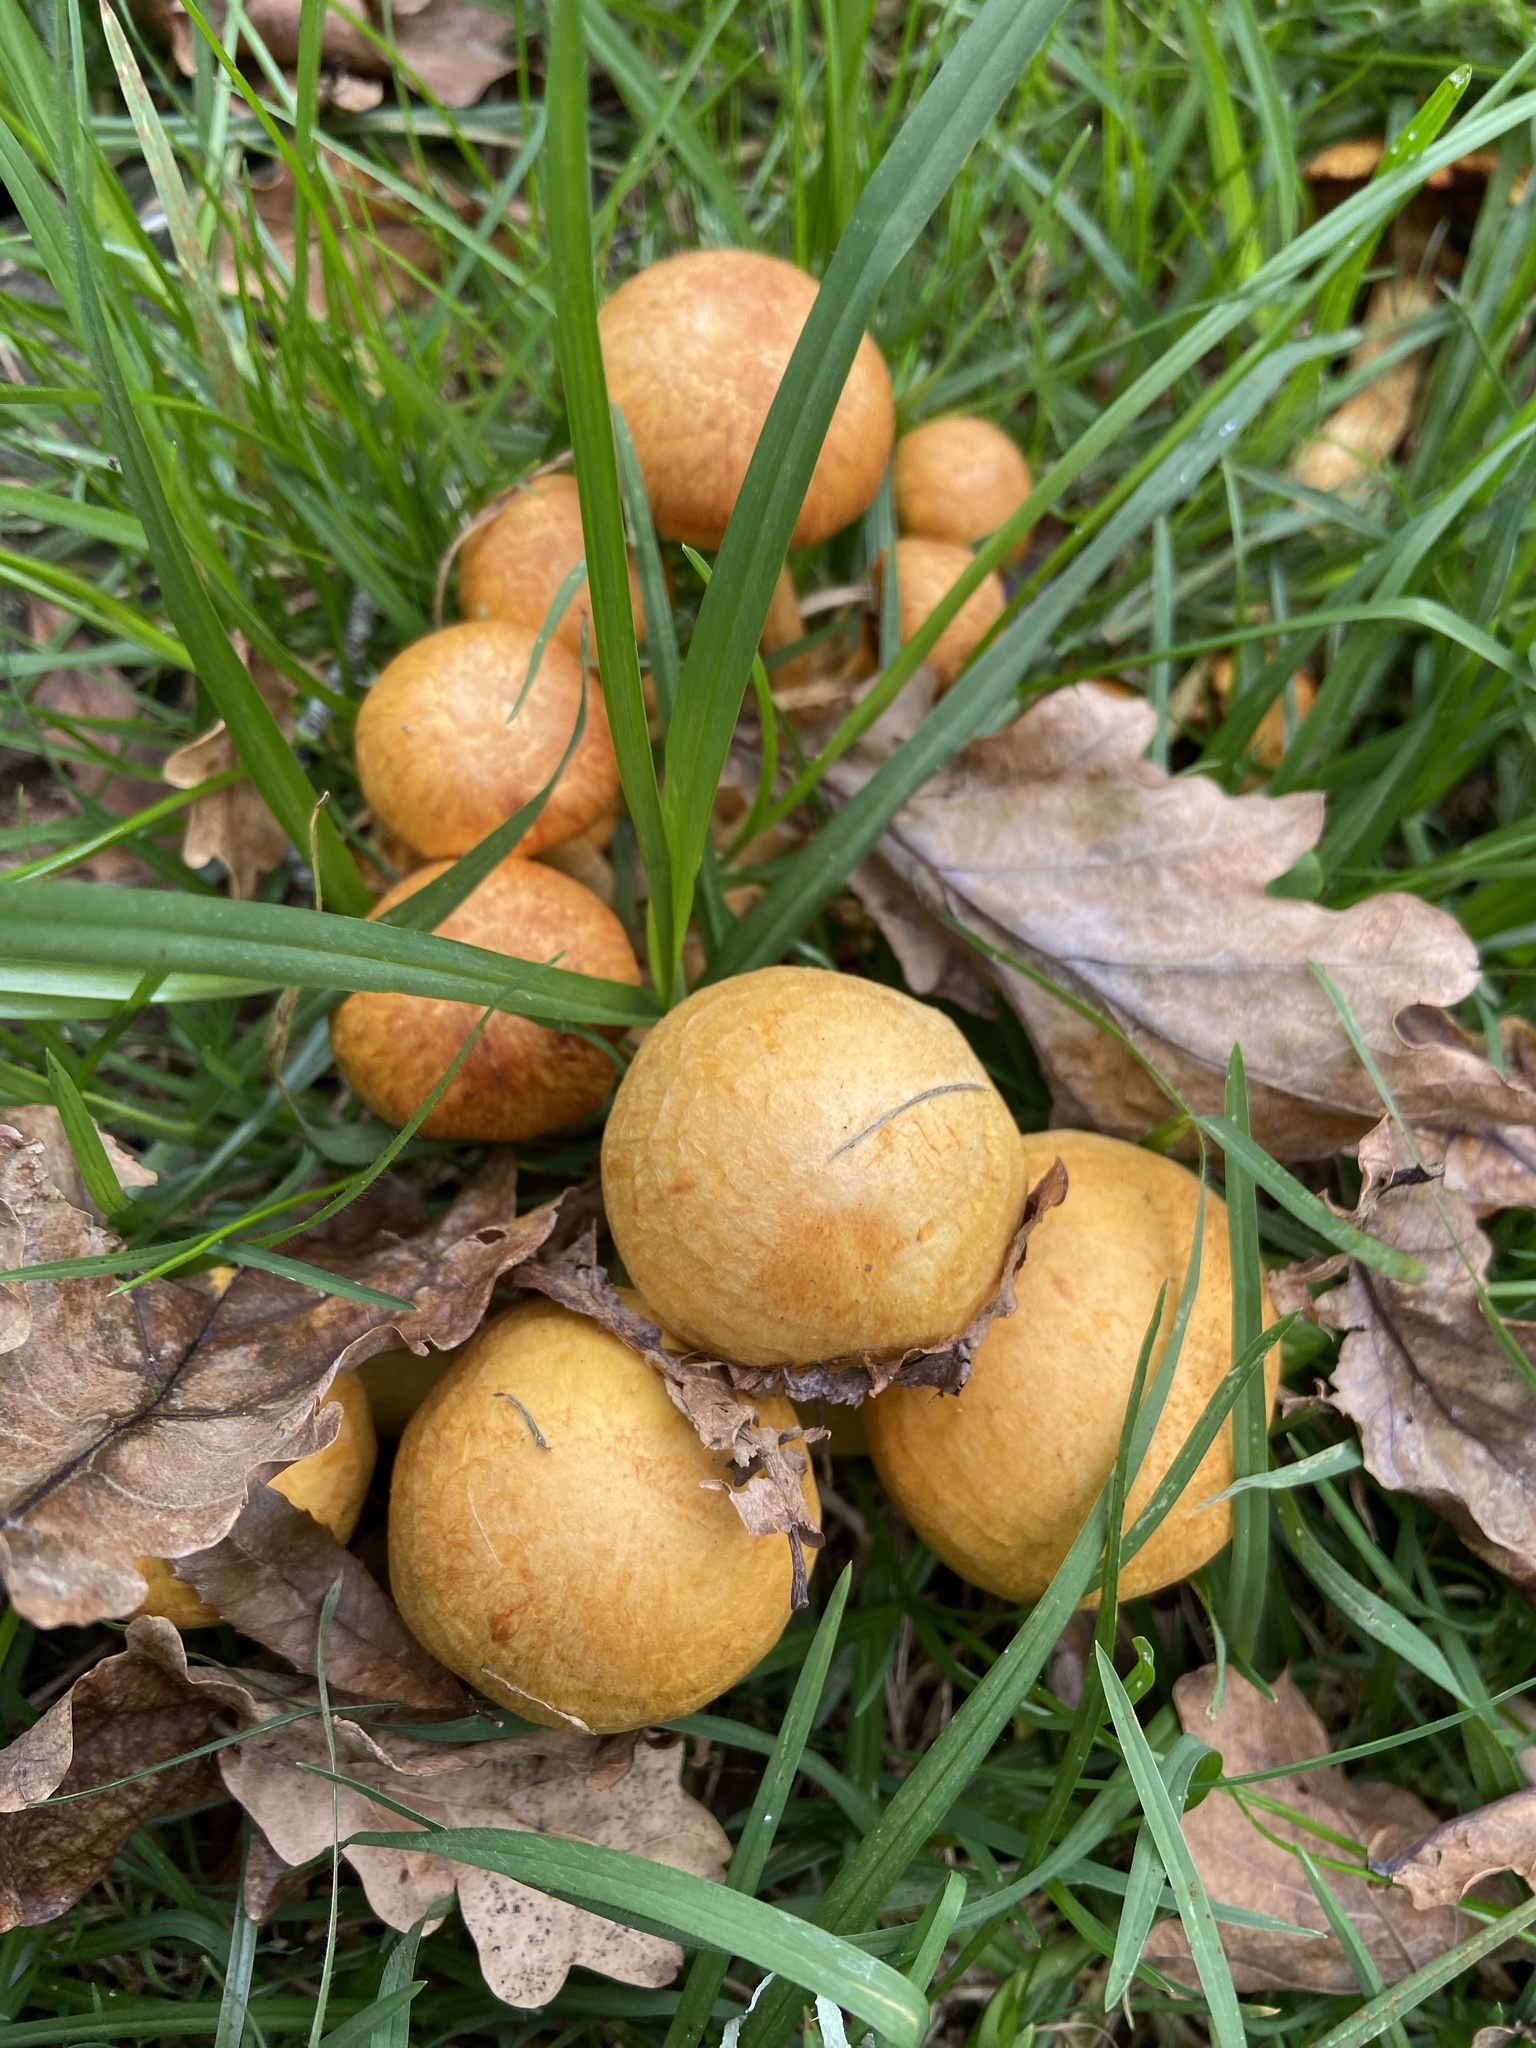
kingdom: Fungi
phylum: Basidiomycota
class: Agaricomycetes
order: Agaricales
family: Hymenogastraceae
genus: Gymnopilus
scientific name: Gymnopilus junonius
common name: Spectacular rustgill
